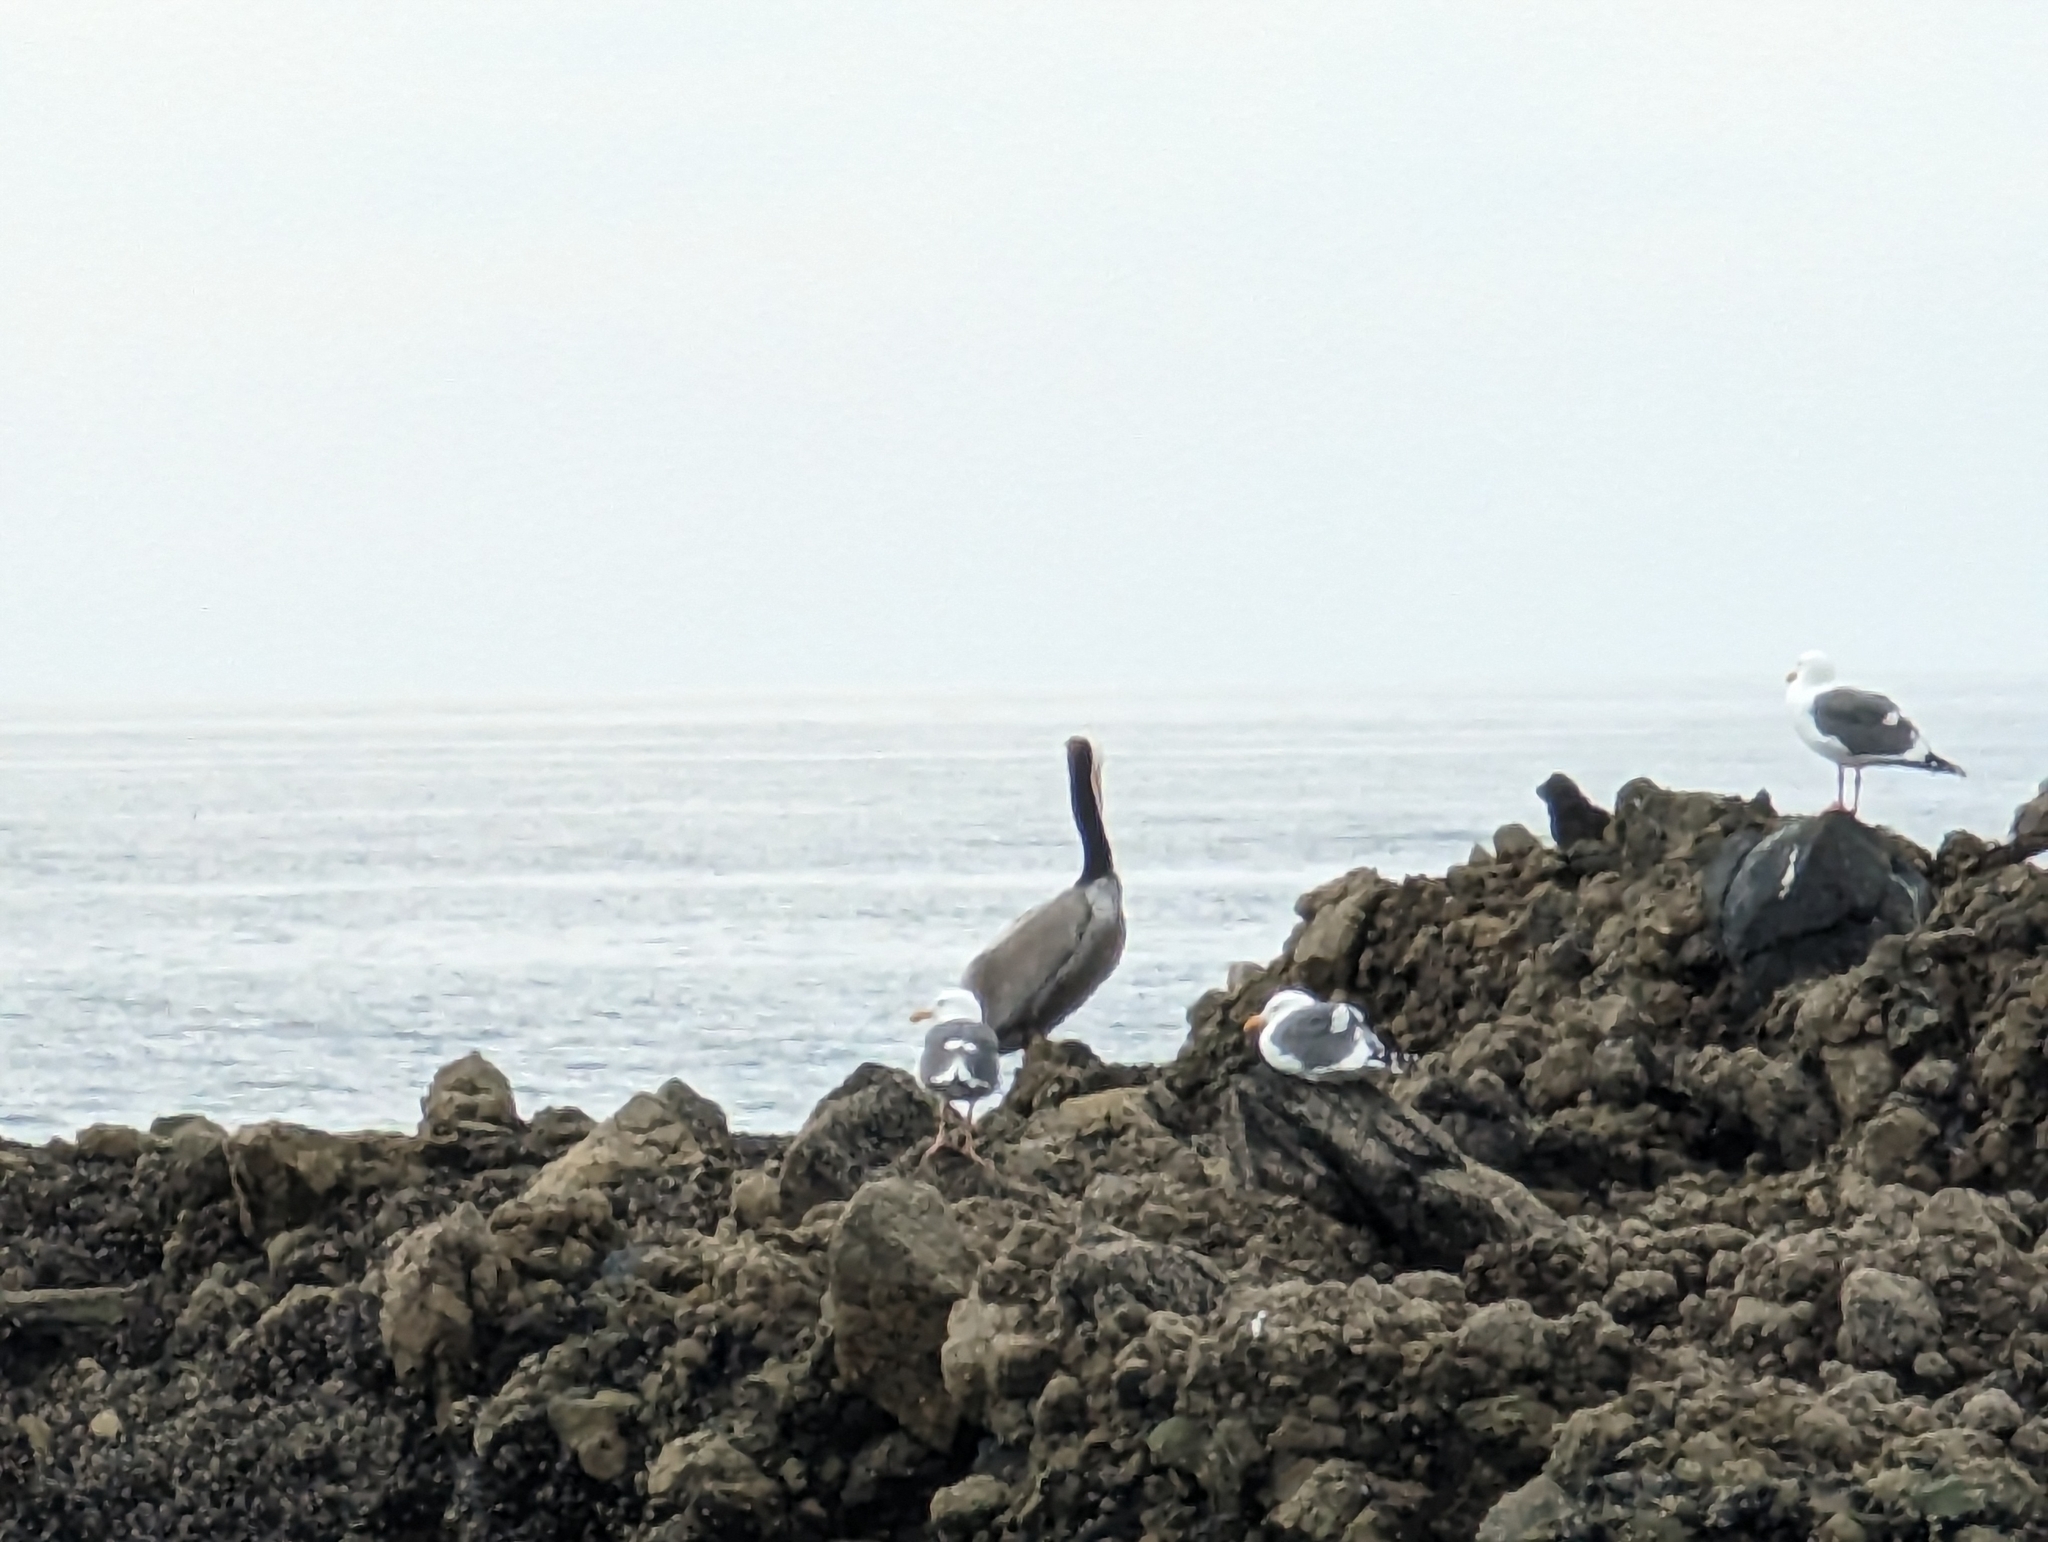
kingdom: Animalia
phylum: Chordata
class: Aves
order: Pelecaniformes
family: Pelecanidae
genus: Pelecanus
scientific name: Pelecanus occidentalis
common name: Brown pelican
